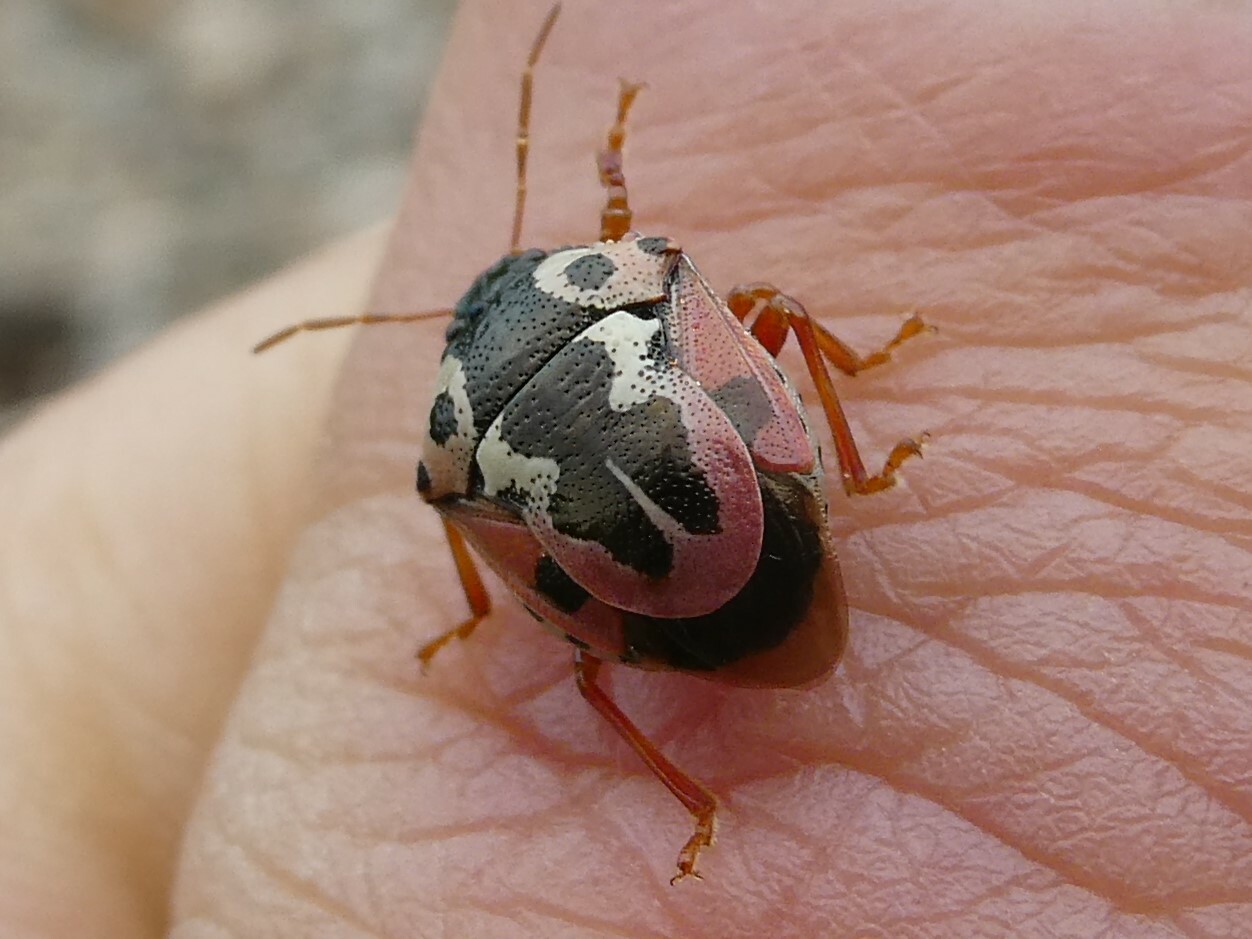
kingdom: Animalia
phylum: Arthropoda
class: Insecta
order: Hemiptera
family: Pentatomidae
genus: Stiretrus
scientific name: Stiretrus anchorago
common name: Anchor stink bug
